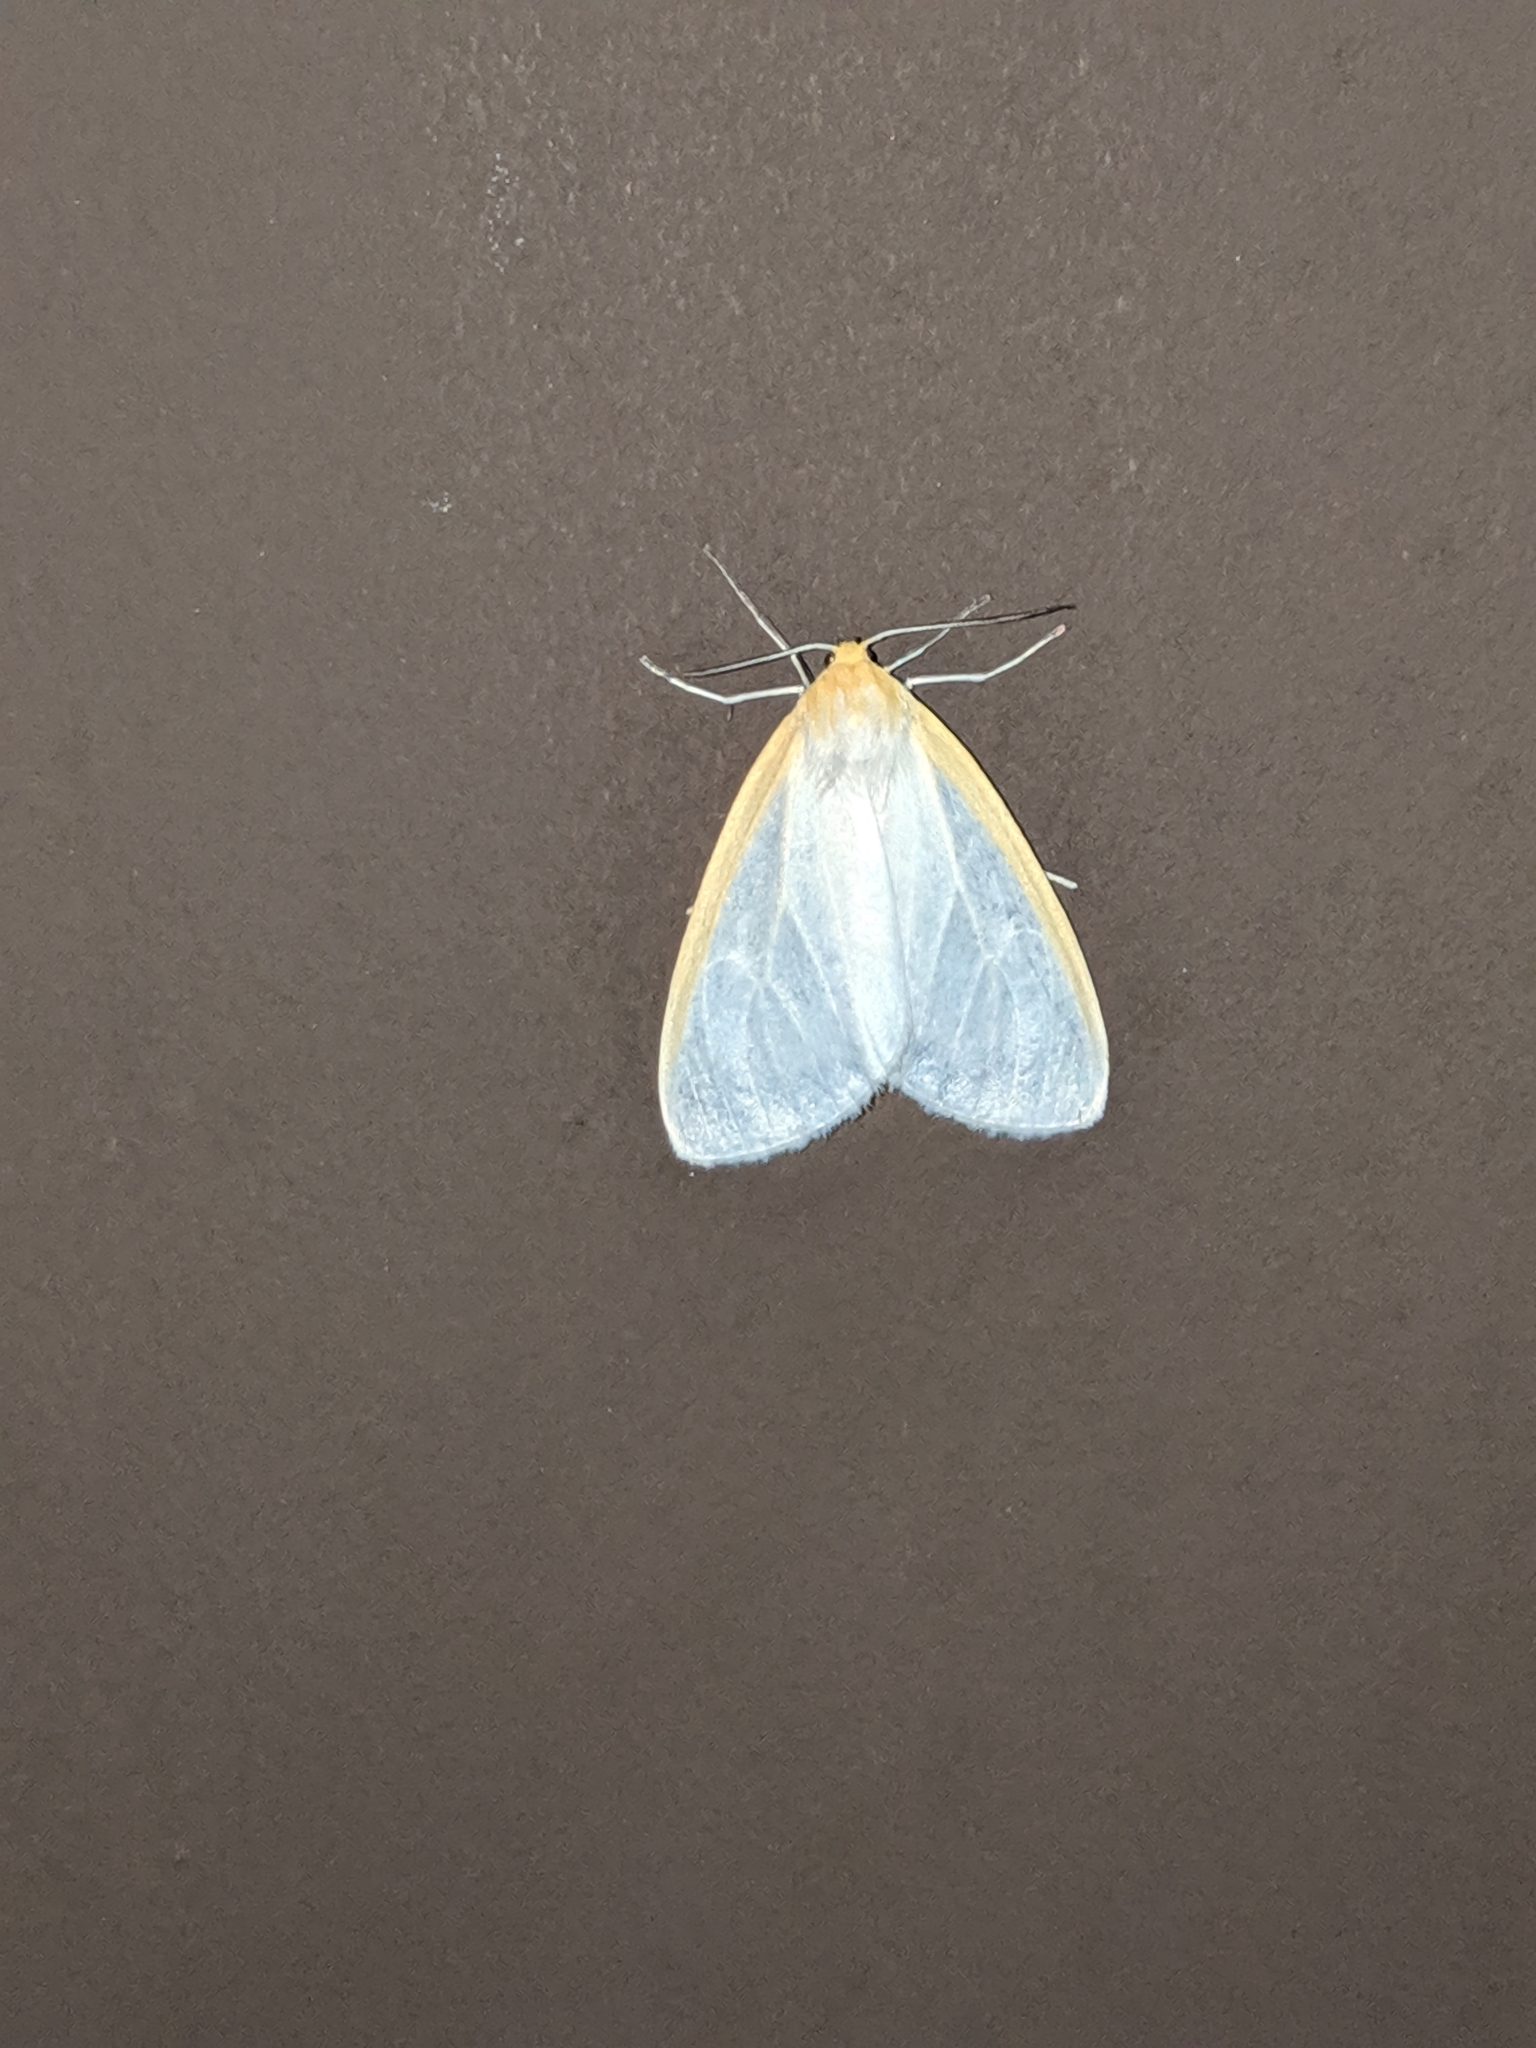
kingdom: Animalia
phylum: Arthropoda
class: Insecta
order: Lepidoptera
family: Erebidae
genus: Cycnia
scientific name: Cycnia tenera
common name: Delicate cycnia moth
